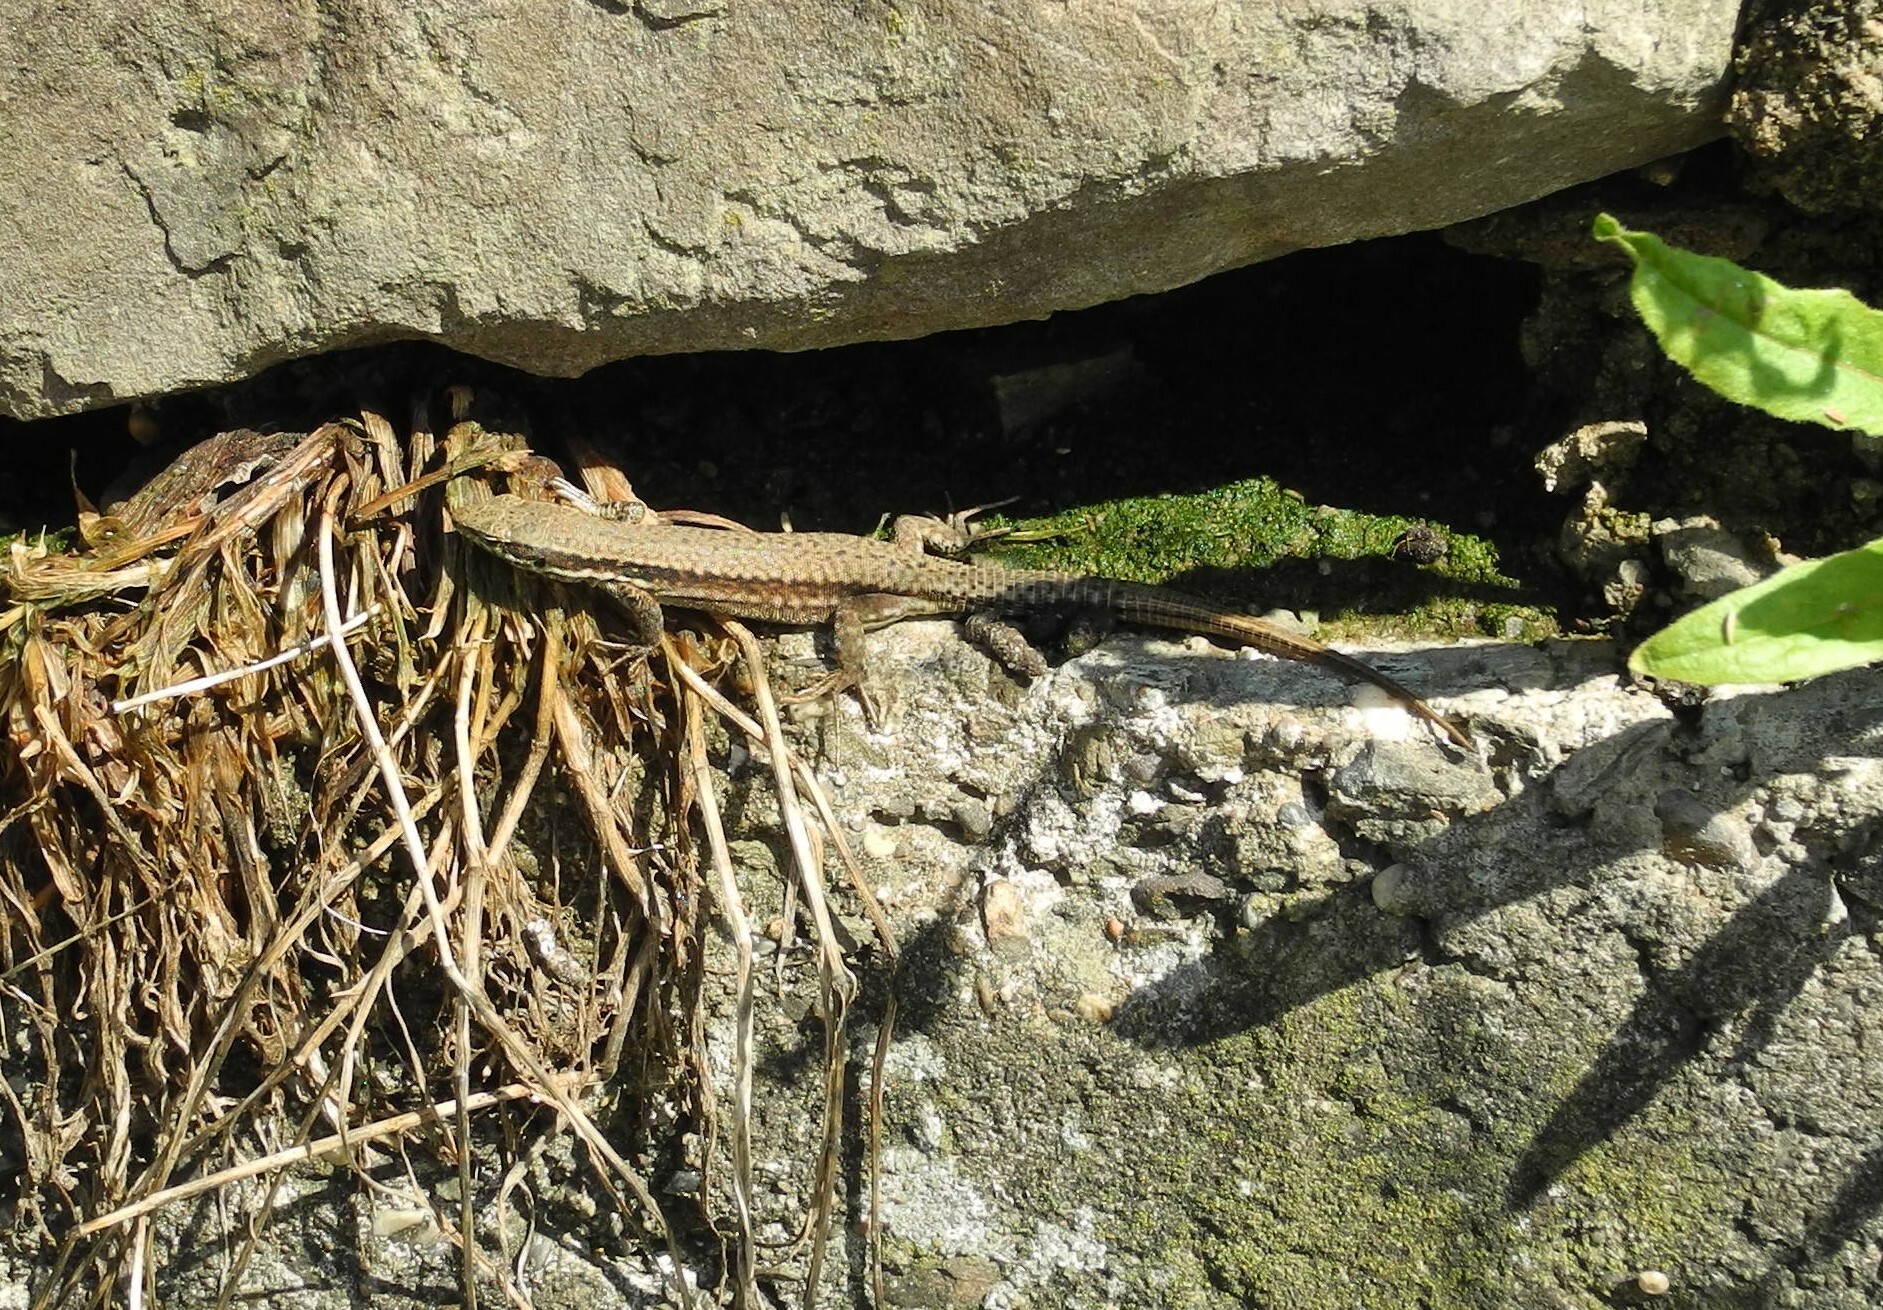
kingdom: Animalia
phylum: Chordata
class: Squamata
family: Lacertidae
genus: Podarcis
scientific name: Podarcis muralis
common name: Common wall lizard
